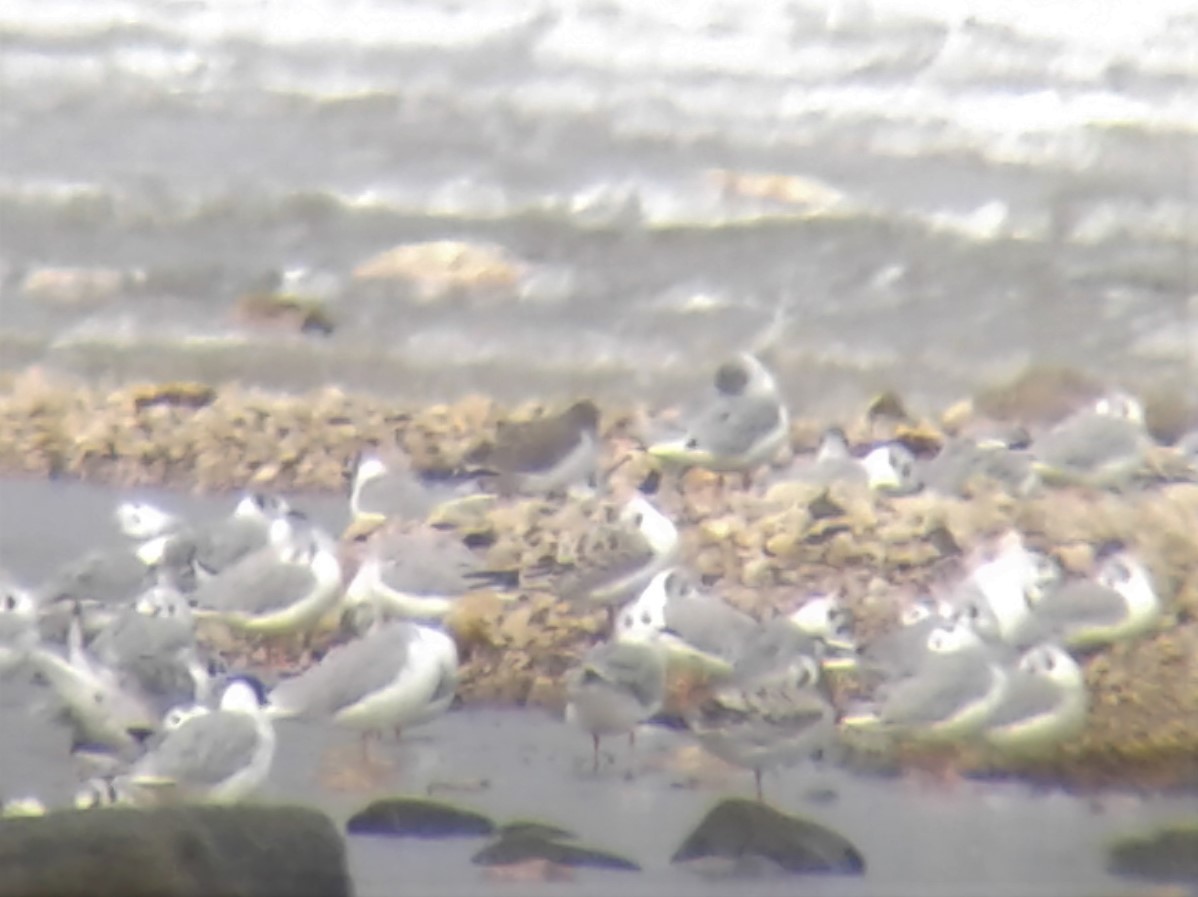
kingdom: Animalia
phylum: Chordata
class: Aves
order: Charadriiformes
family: Laridae
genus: Xema
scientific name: Xema sabini
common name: Sabine's gull
